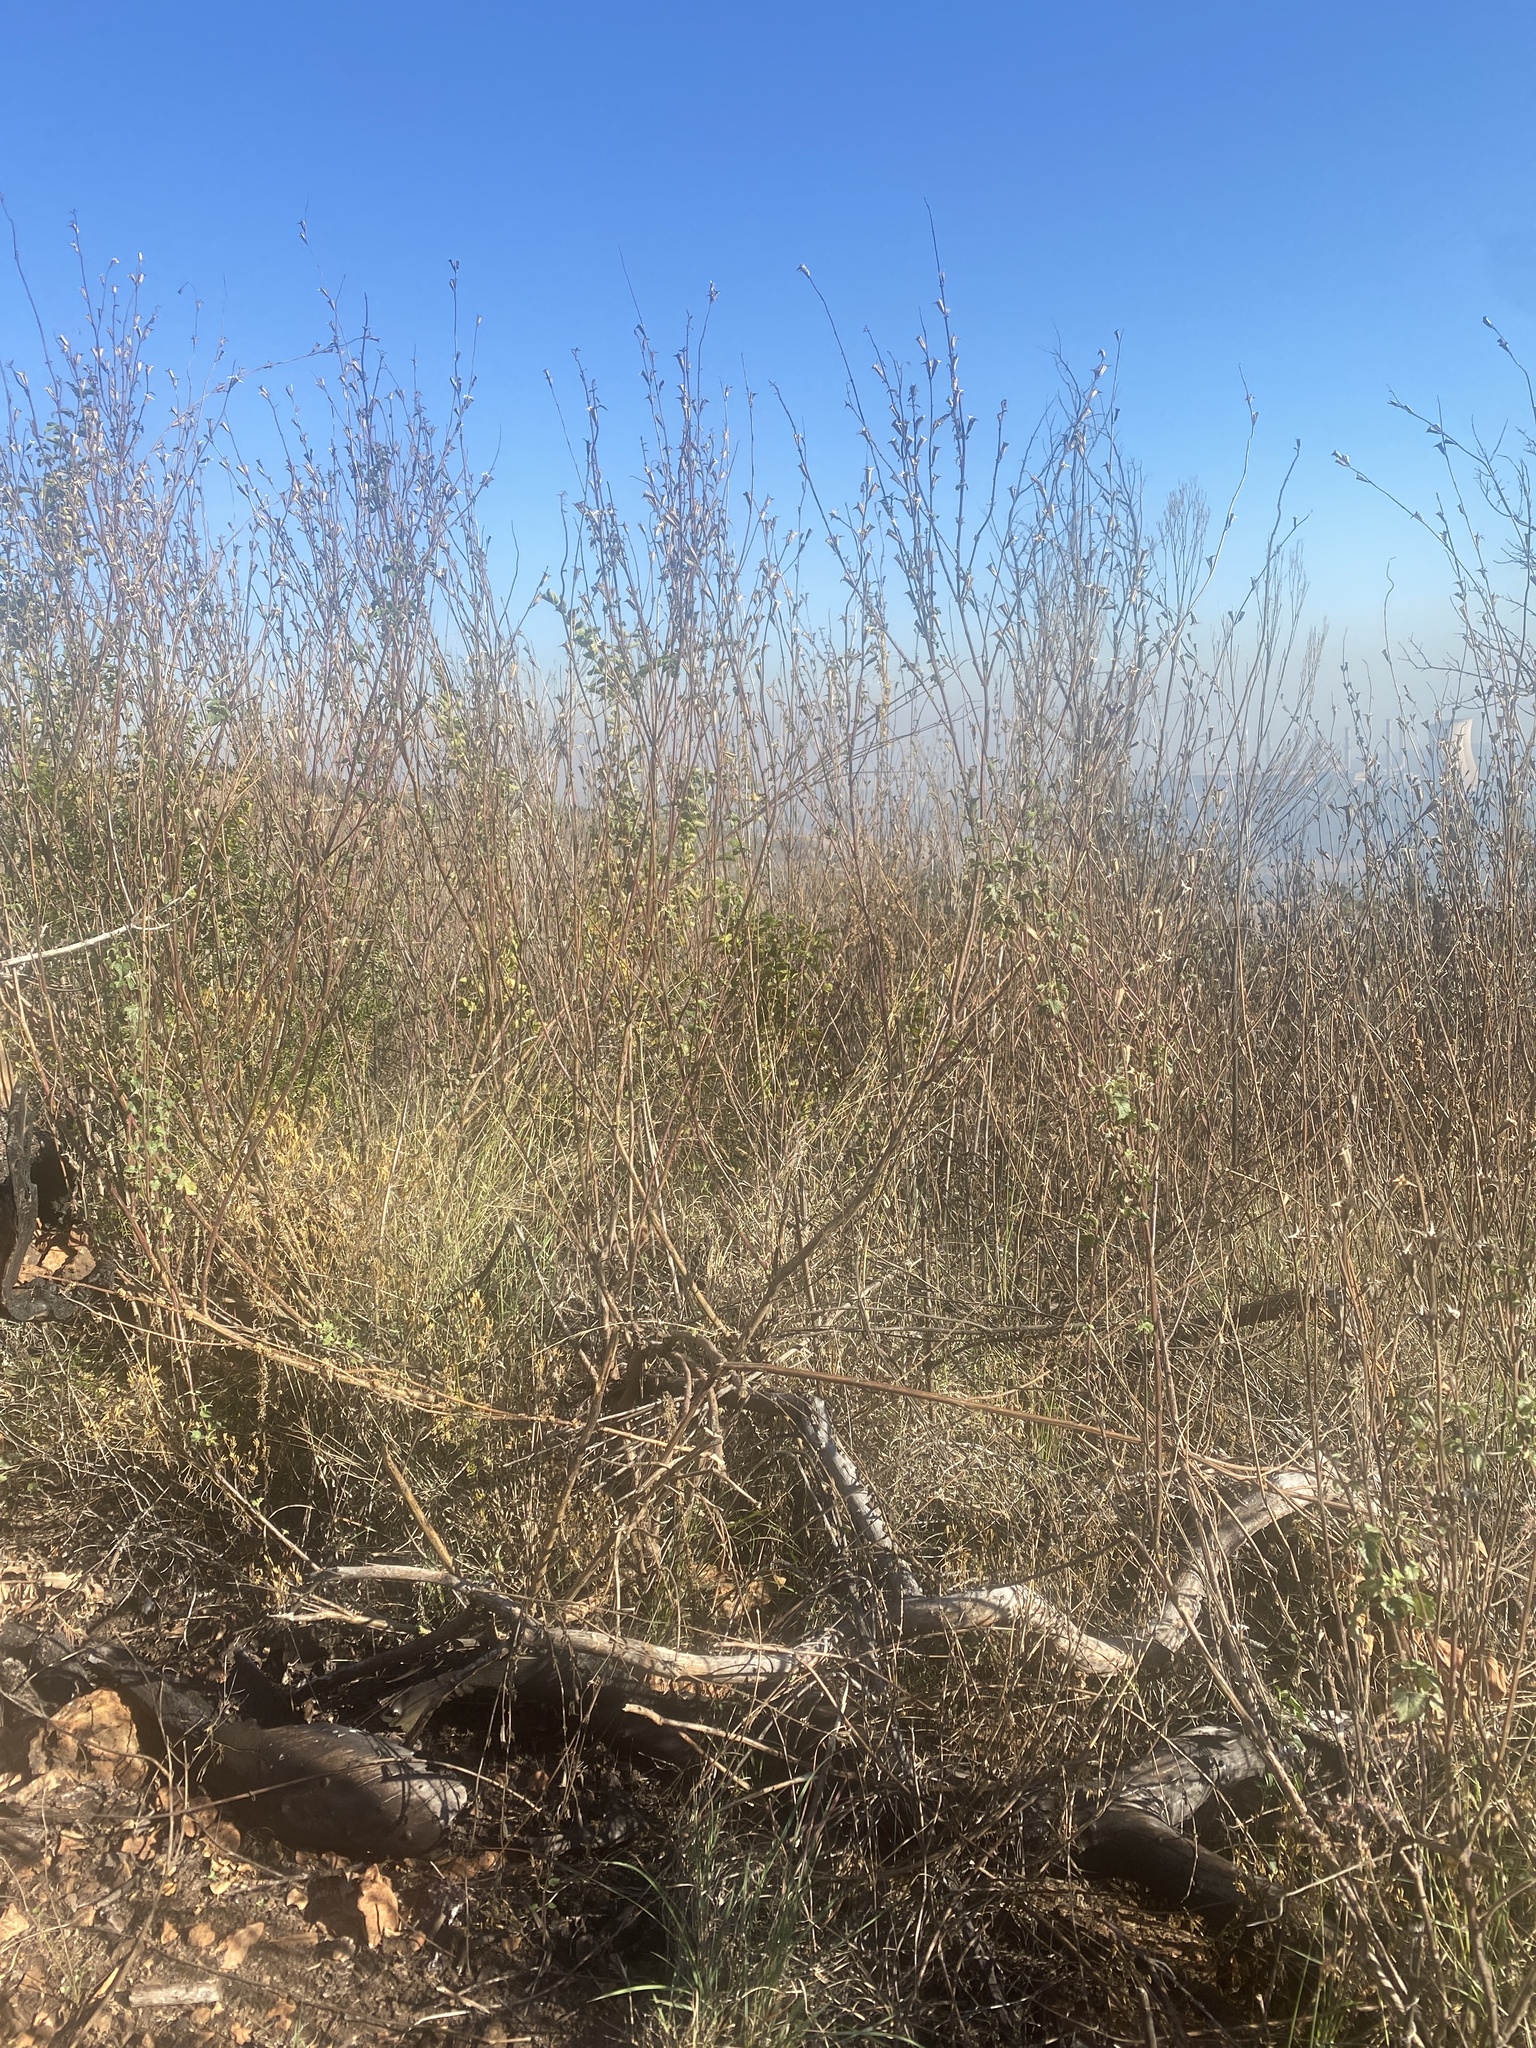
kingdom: Plantae
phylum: Tracheophyta
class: Magnoliopsida
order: Lamiales
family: Pedaliaceae
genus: Sesamum
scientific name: Sesamum trilobum
